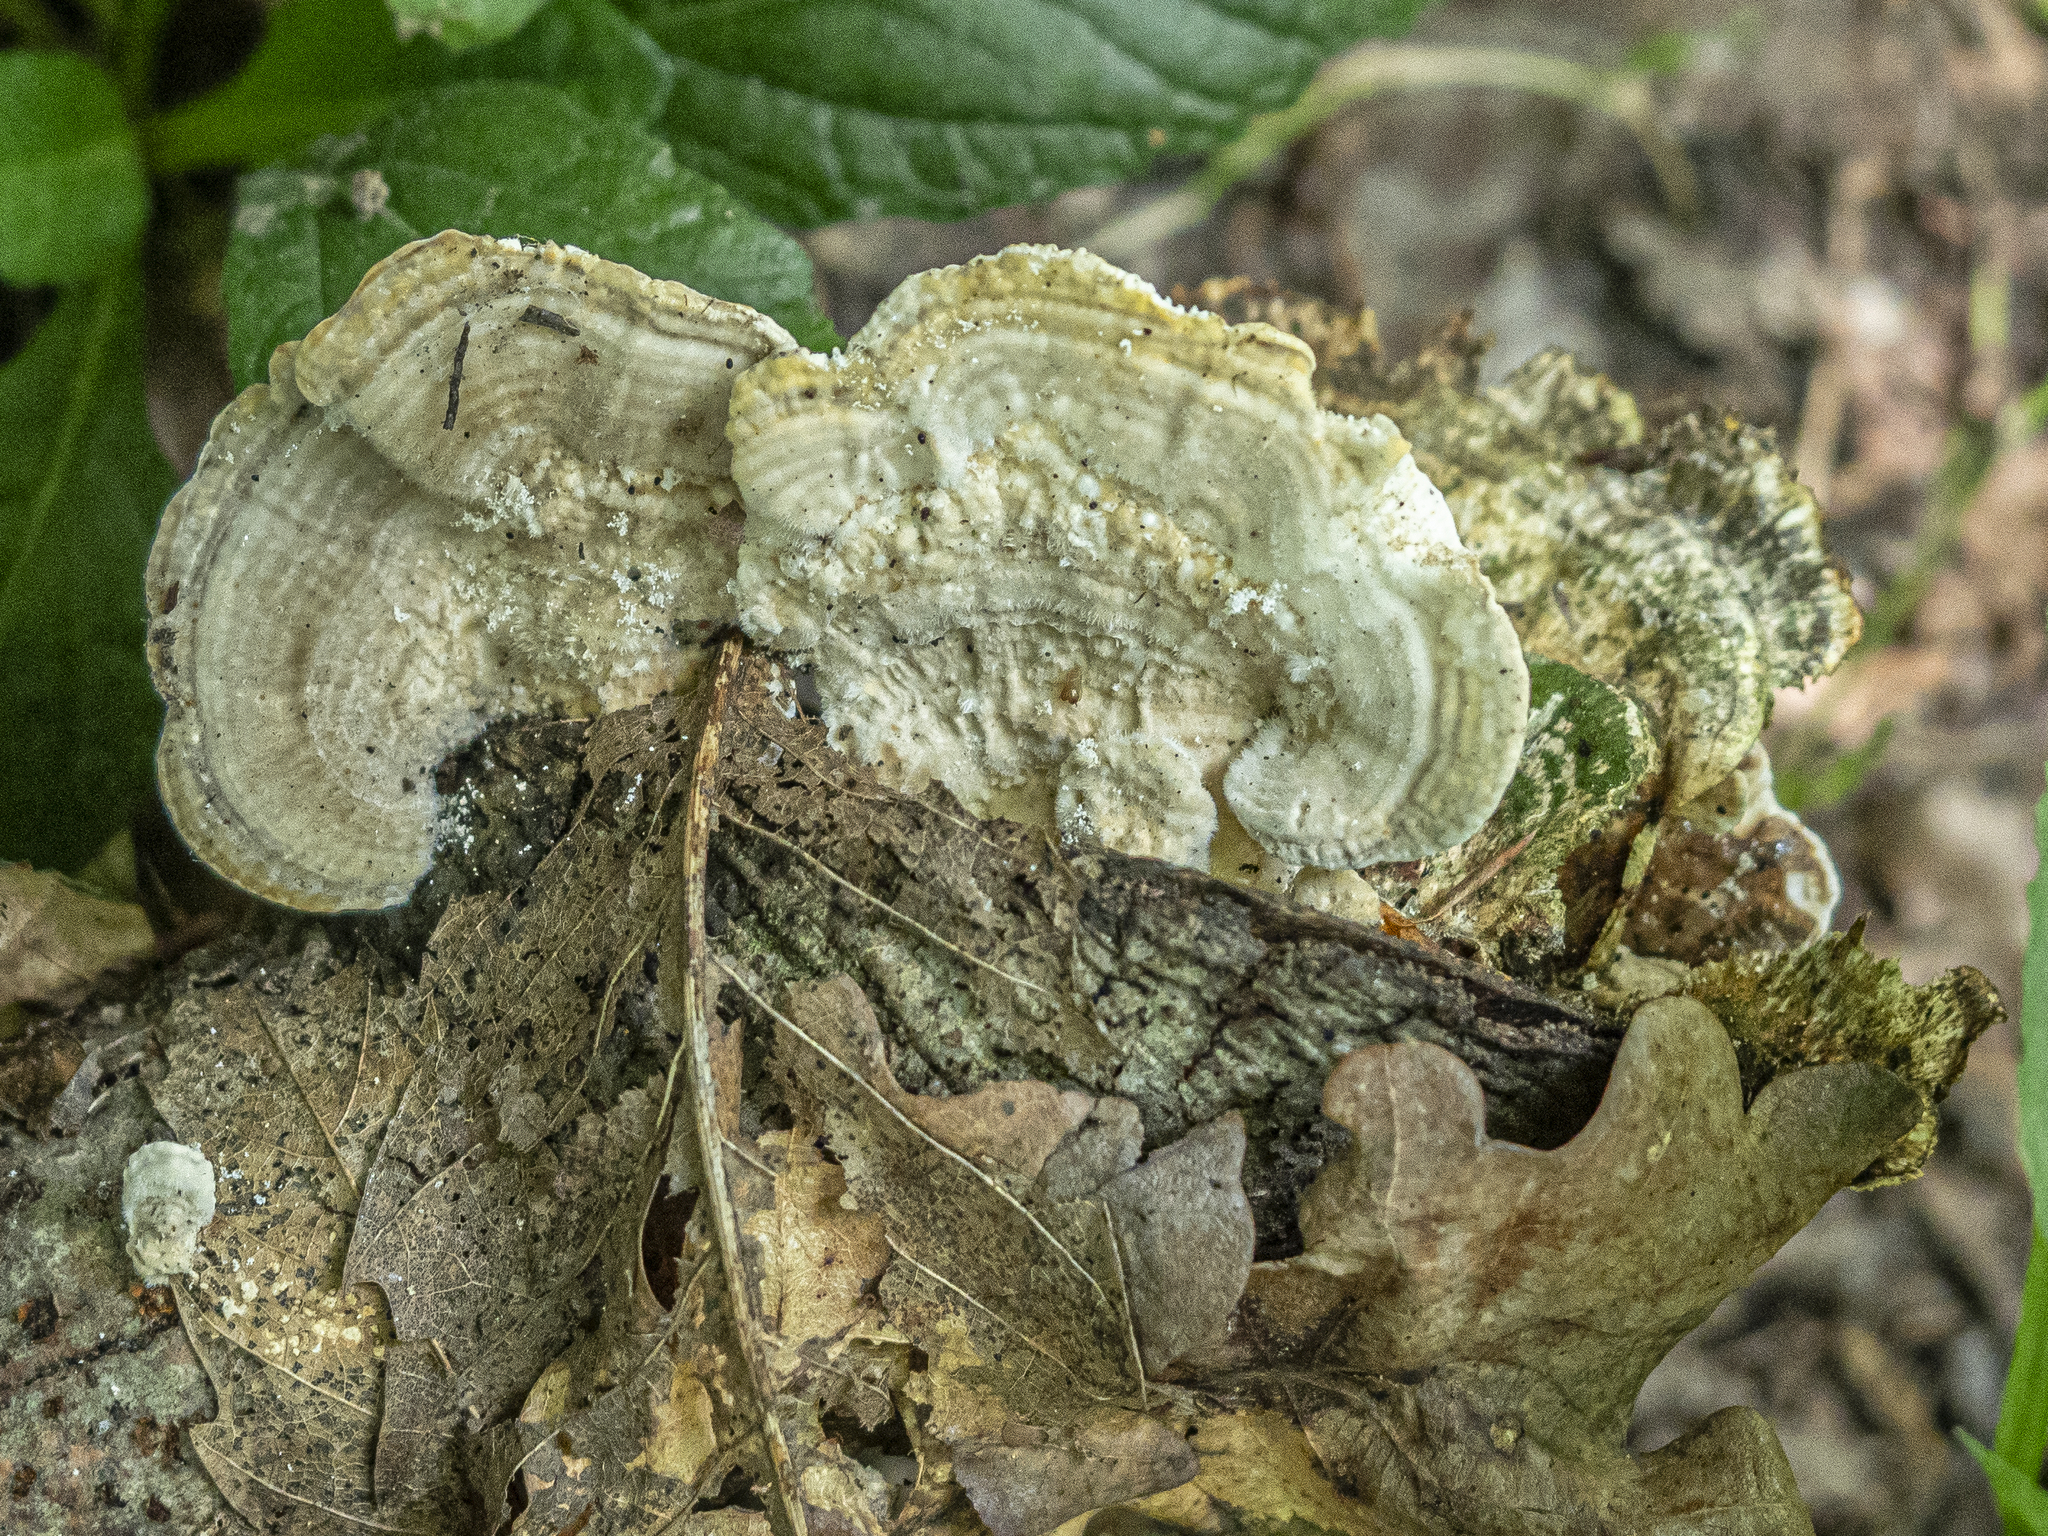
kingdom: Fungi
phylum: Basidiomycota
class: Agaricomycetes
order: Polyporales
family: Polyporaceae
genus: Lenzites
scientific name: Lenzites betulinus
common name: Birch mazegill
